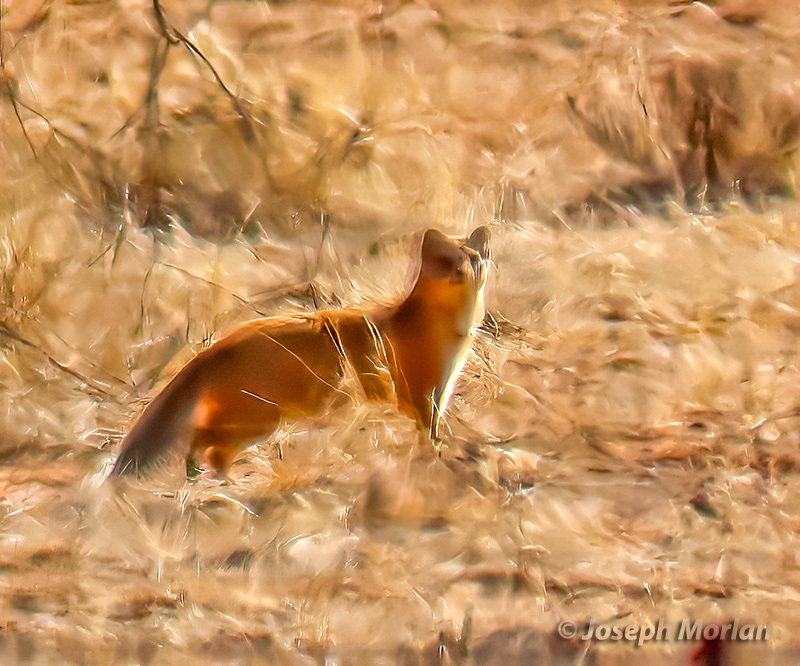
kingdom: Animalia
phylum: Chordata
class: Mammalia
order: Carnivora
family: Herpestidae
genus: Cynictis
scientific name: Cynictis penicillata
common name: Yellow mongoose
